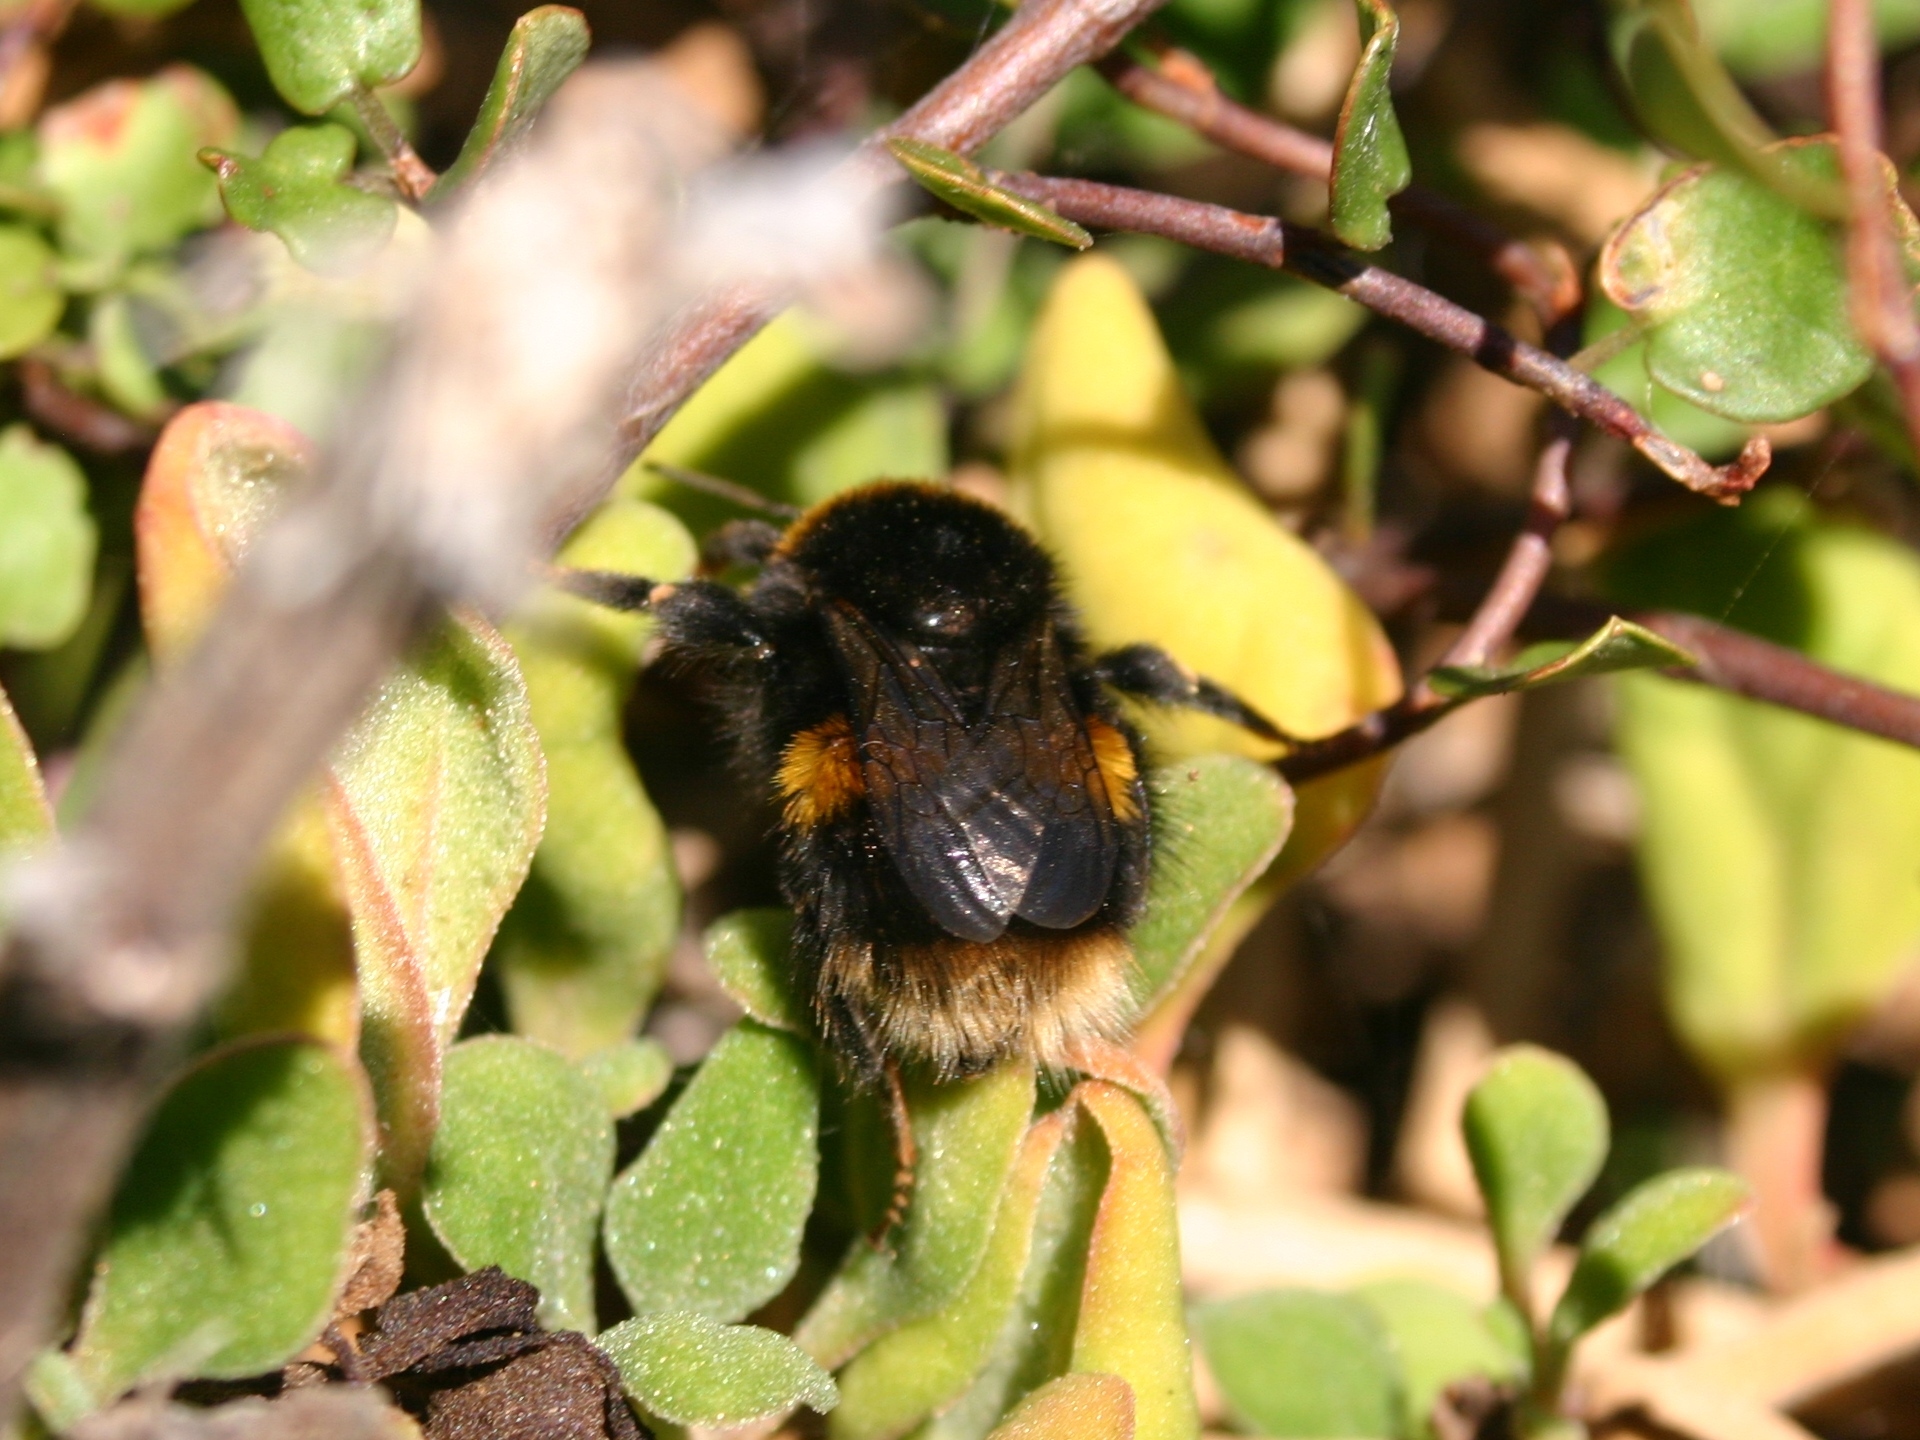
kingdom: Animalia
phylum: Arthropoda
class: Insecta
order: Hymenoptera
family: Apidae
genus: Bombus
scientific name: Bombus terrestris
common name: Buff-tailed bumblebee
